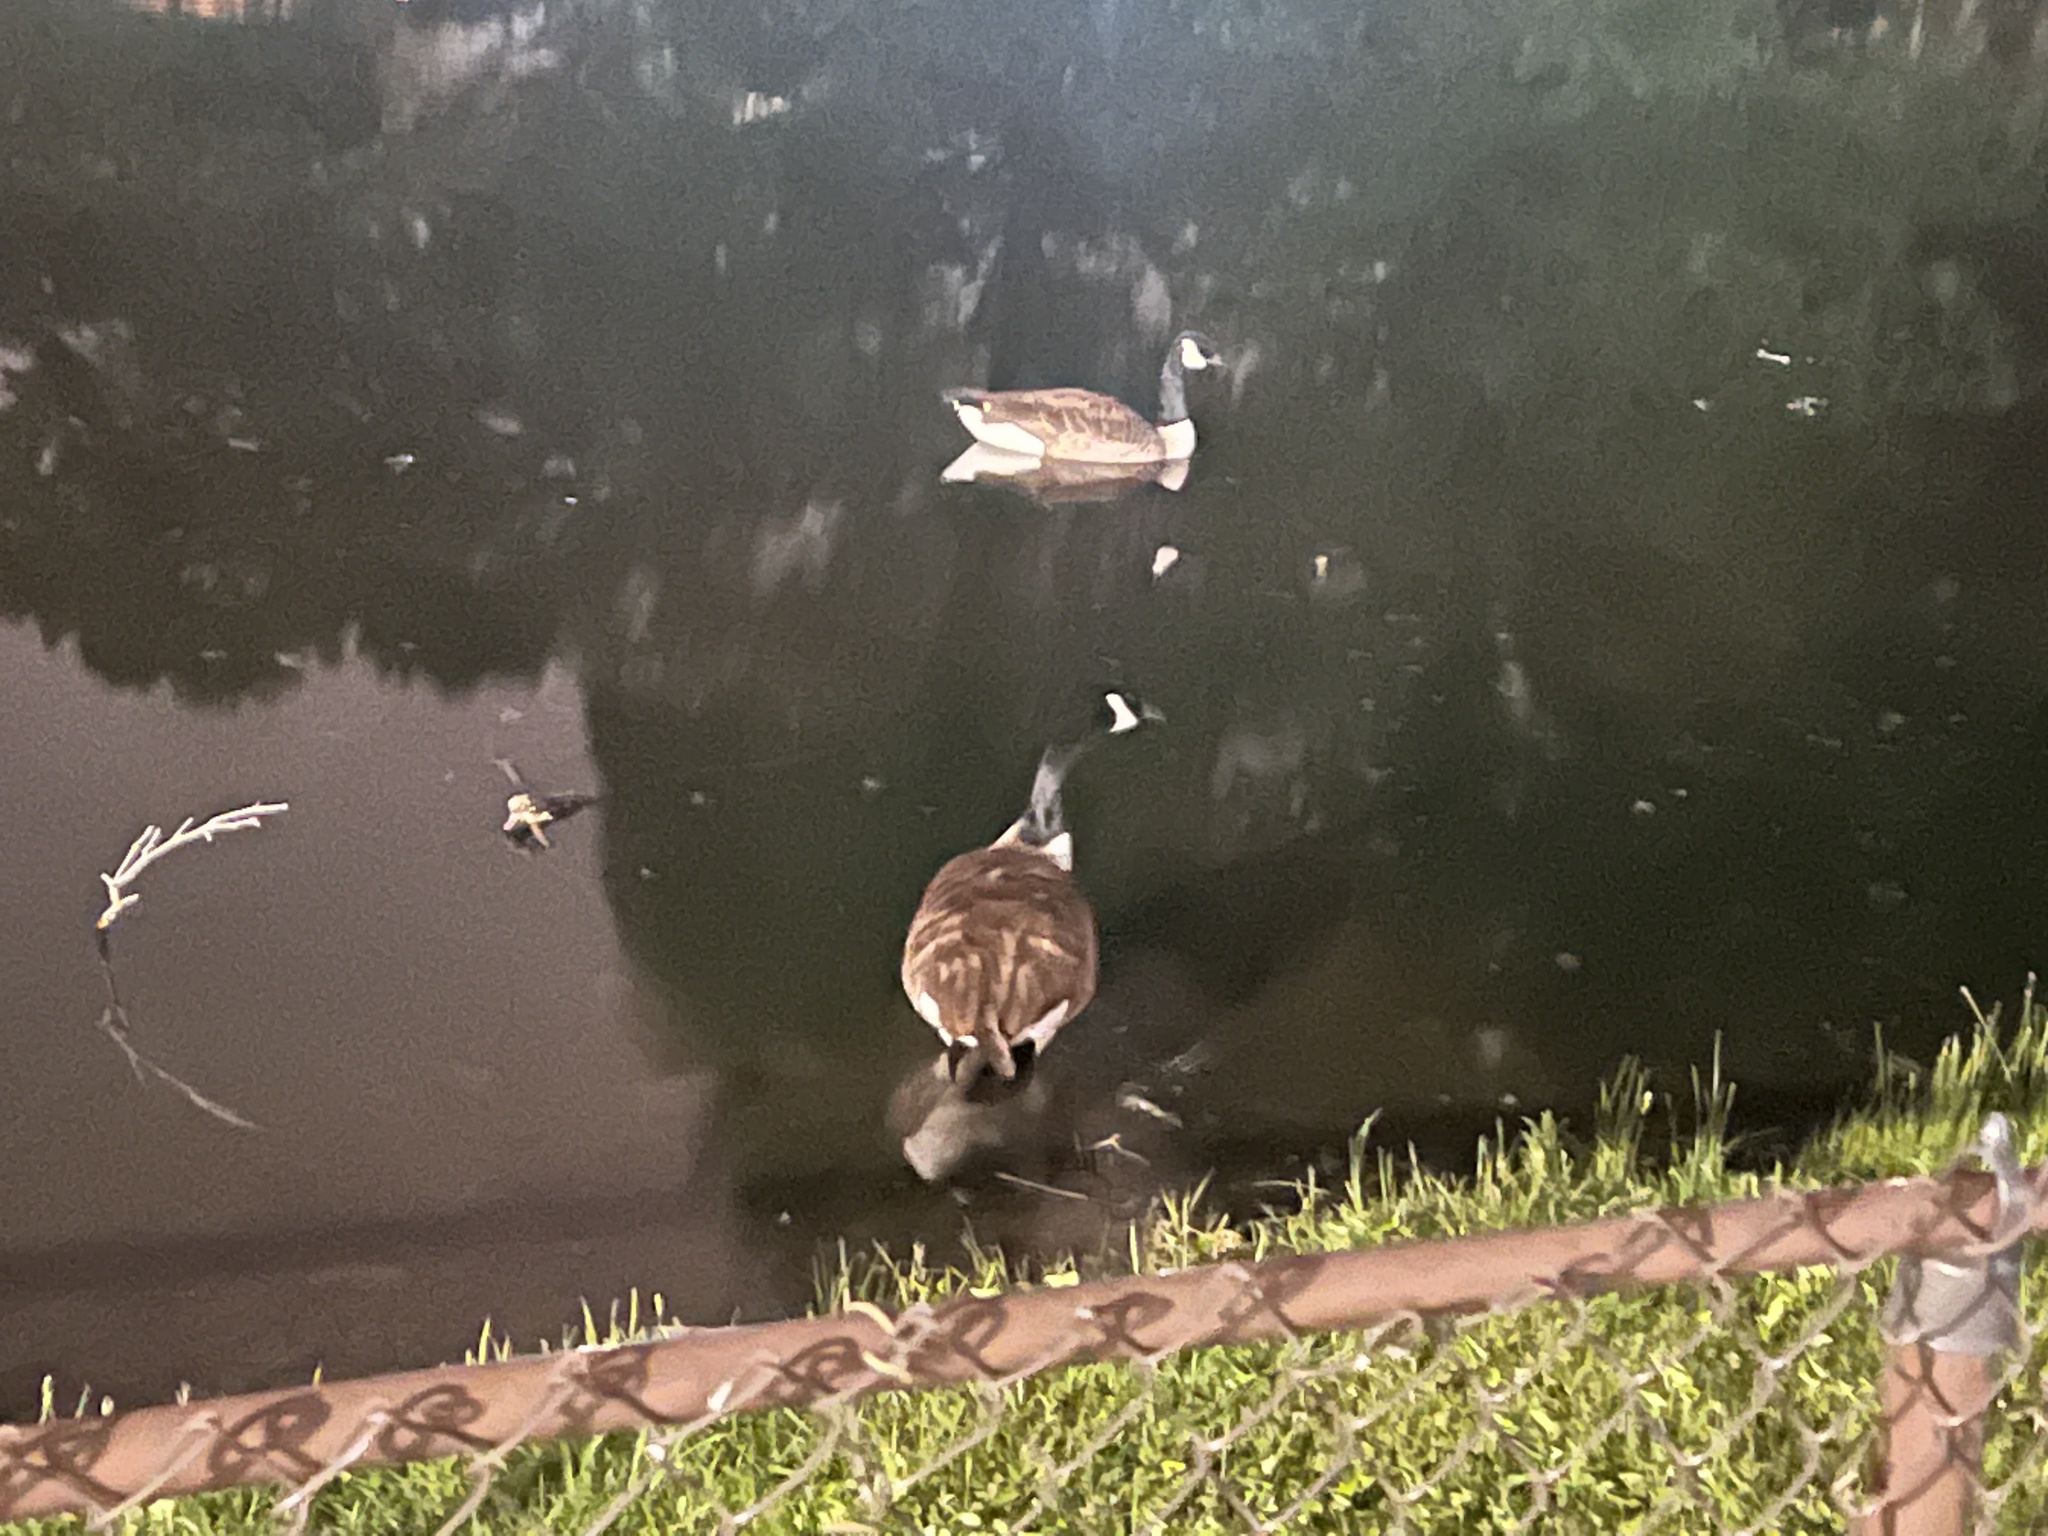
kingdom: Animalia
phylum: Chordata
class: Aves
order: Anseriformes
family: Anatidae
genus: Branta
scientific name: Branta canadensis
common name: Canada goose
